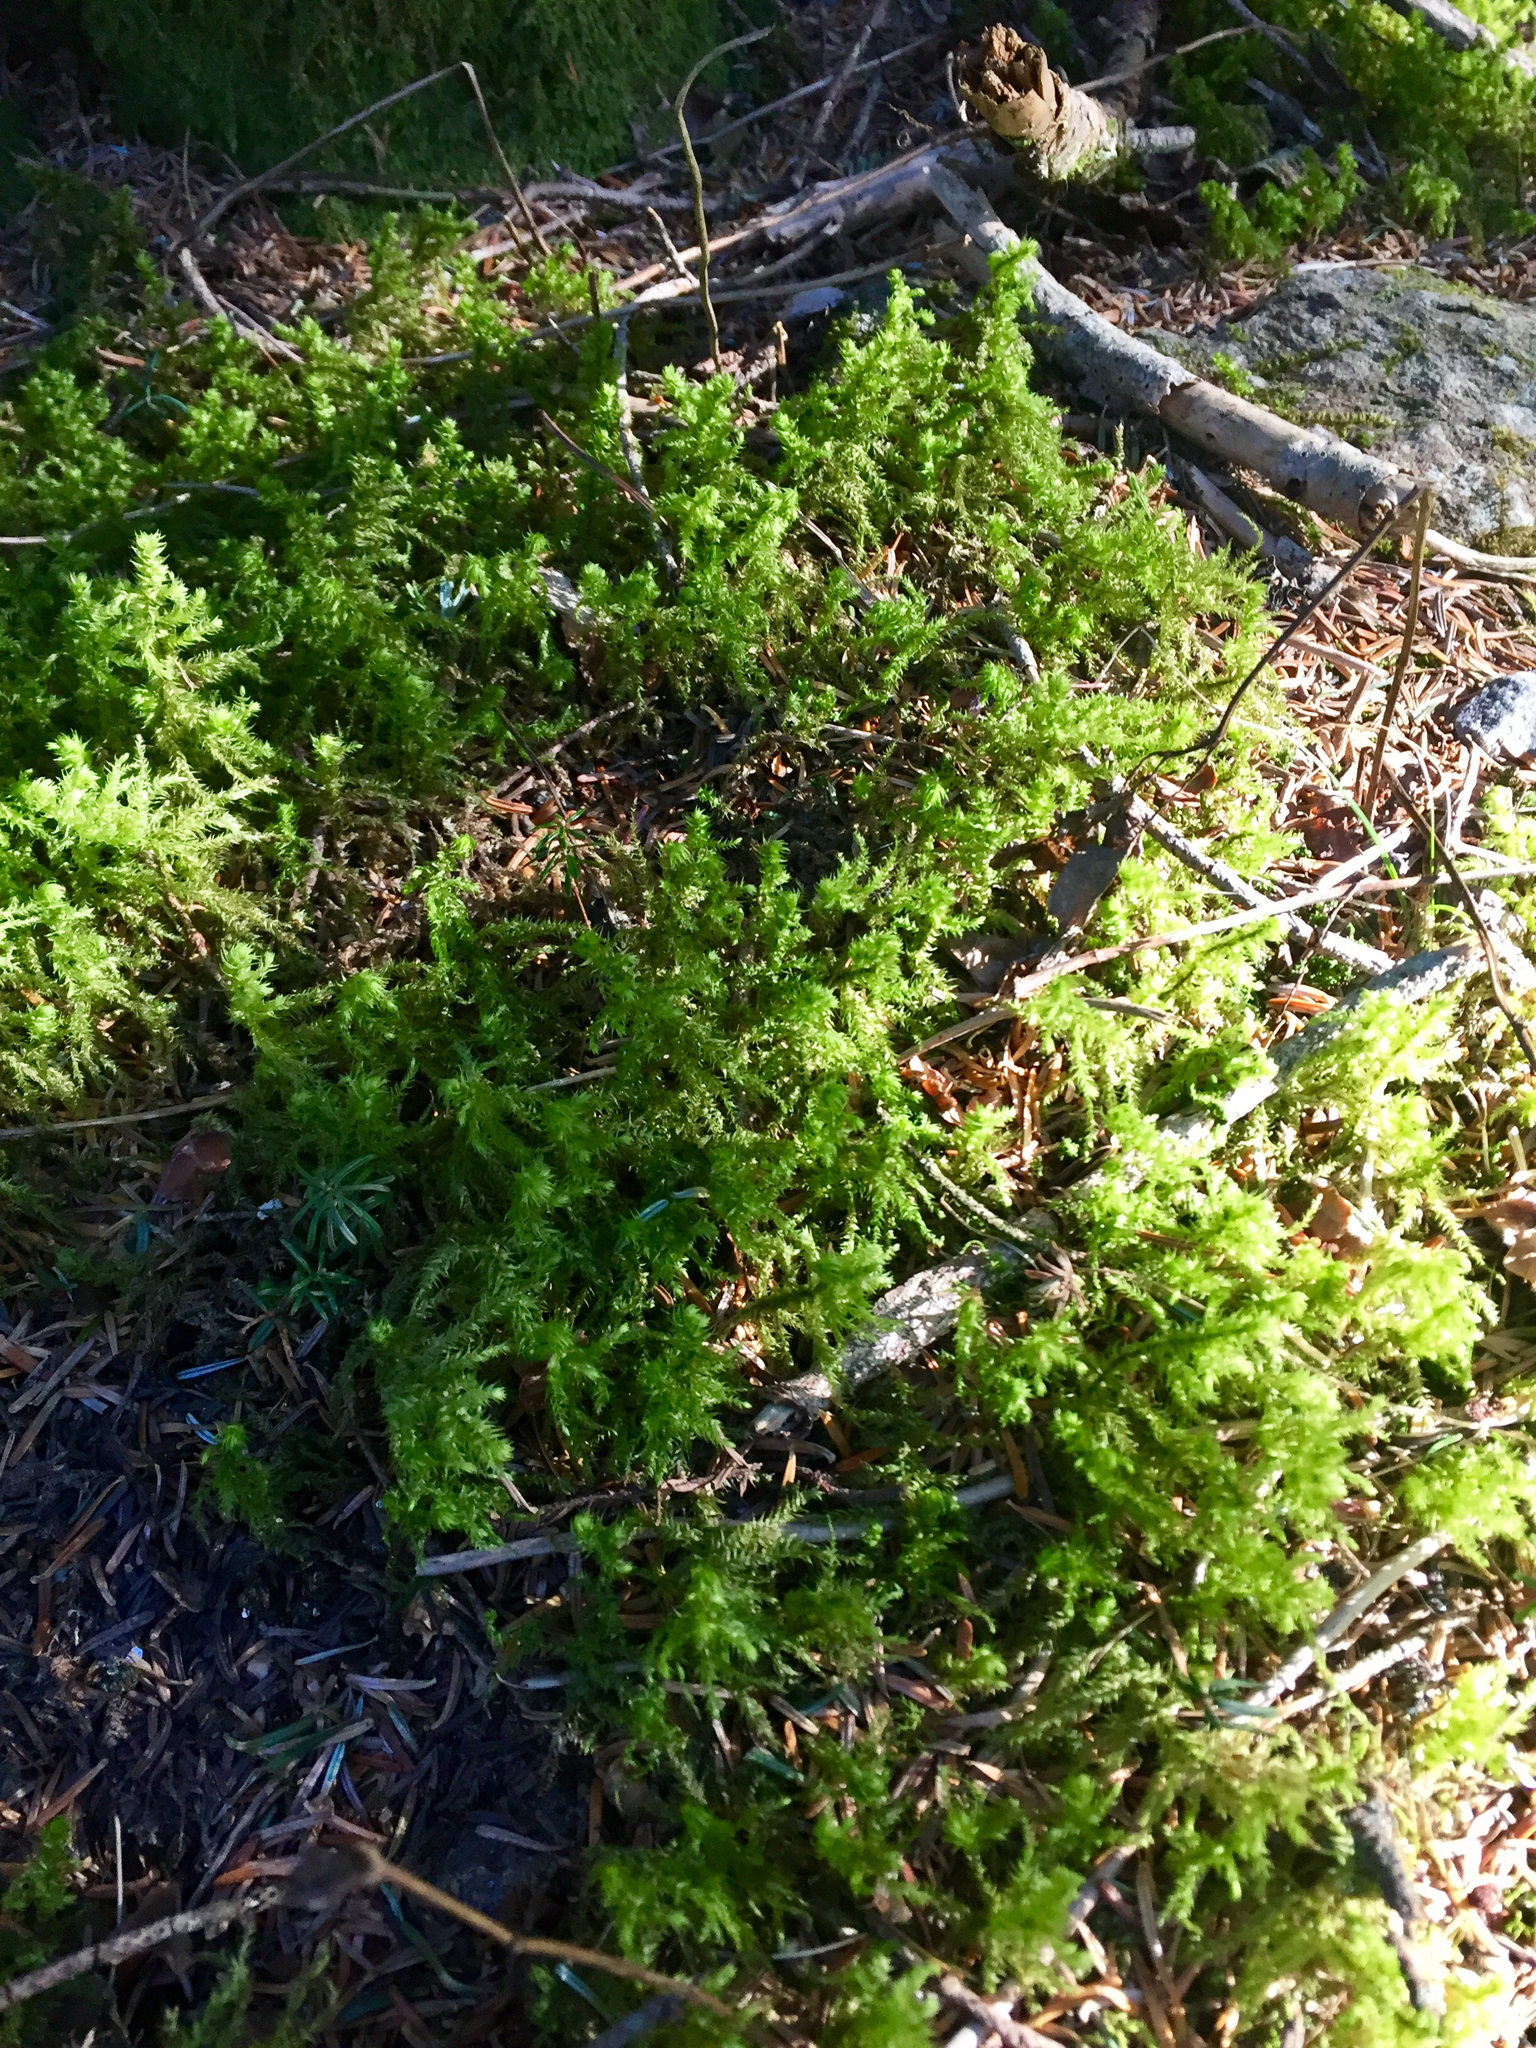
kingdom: Plantae
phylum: Bryophyta
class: Bryopsida
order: Hypnales
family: Hylocomiaceae
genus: Hylocomiadelphus
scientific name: Hylocomiadelphus triquetrus
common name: Rough goose neck moss
